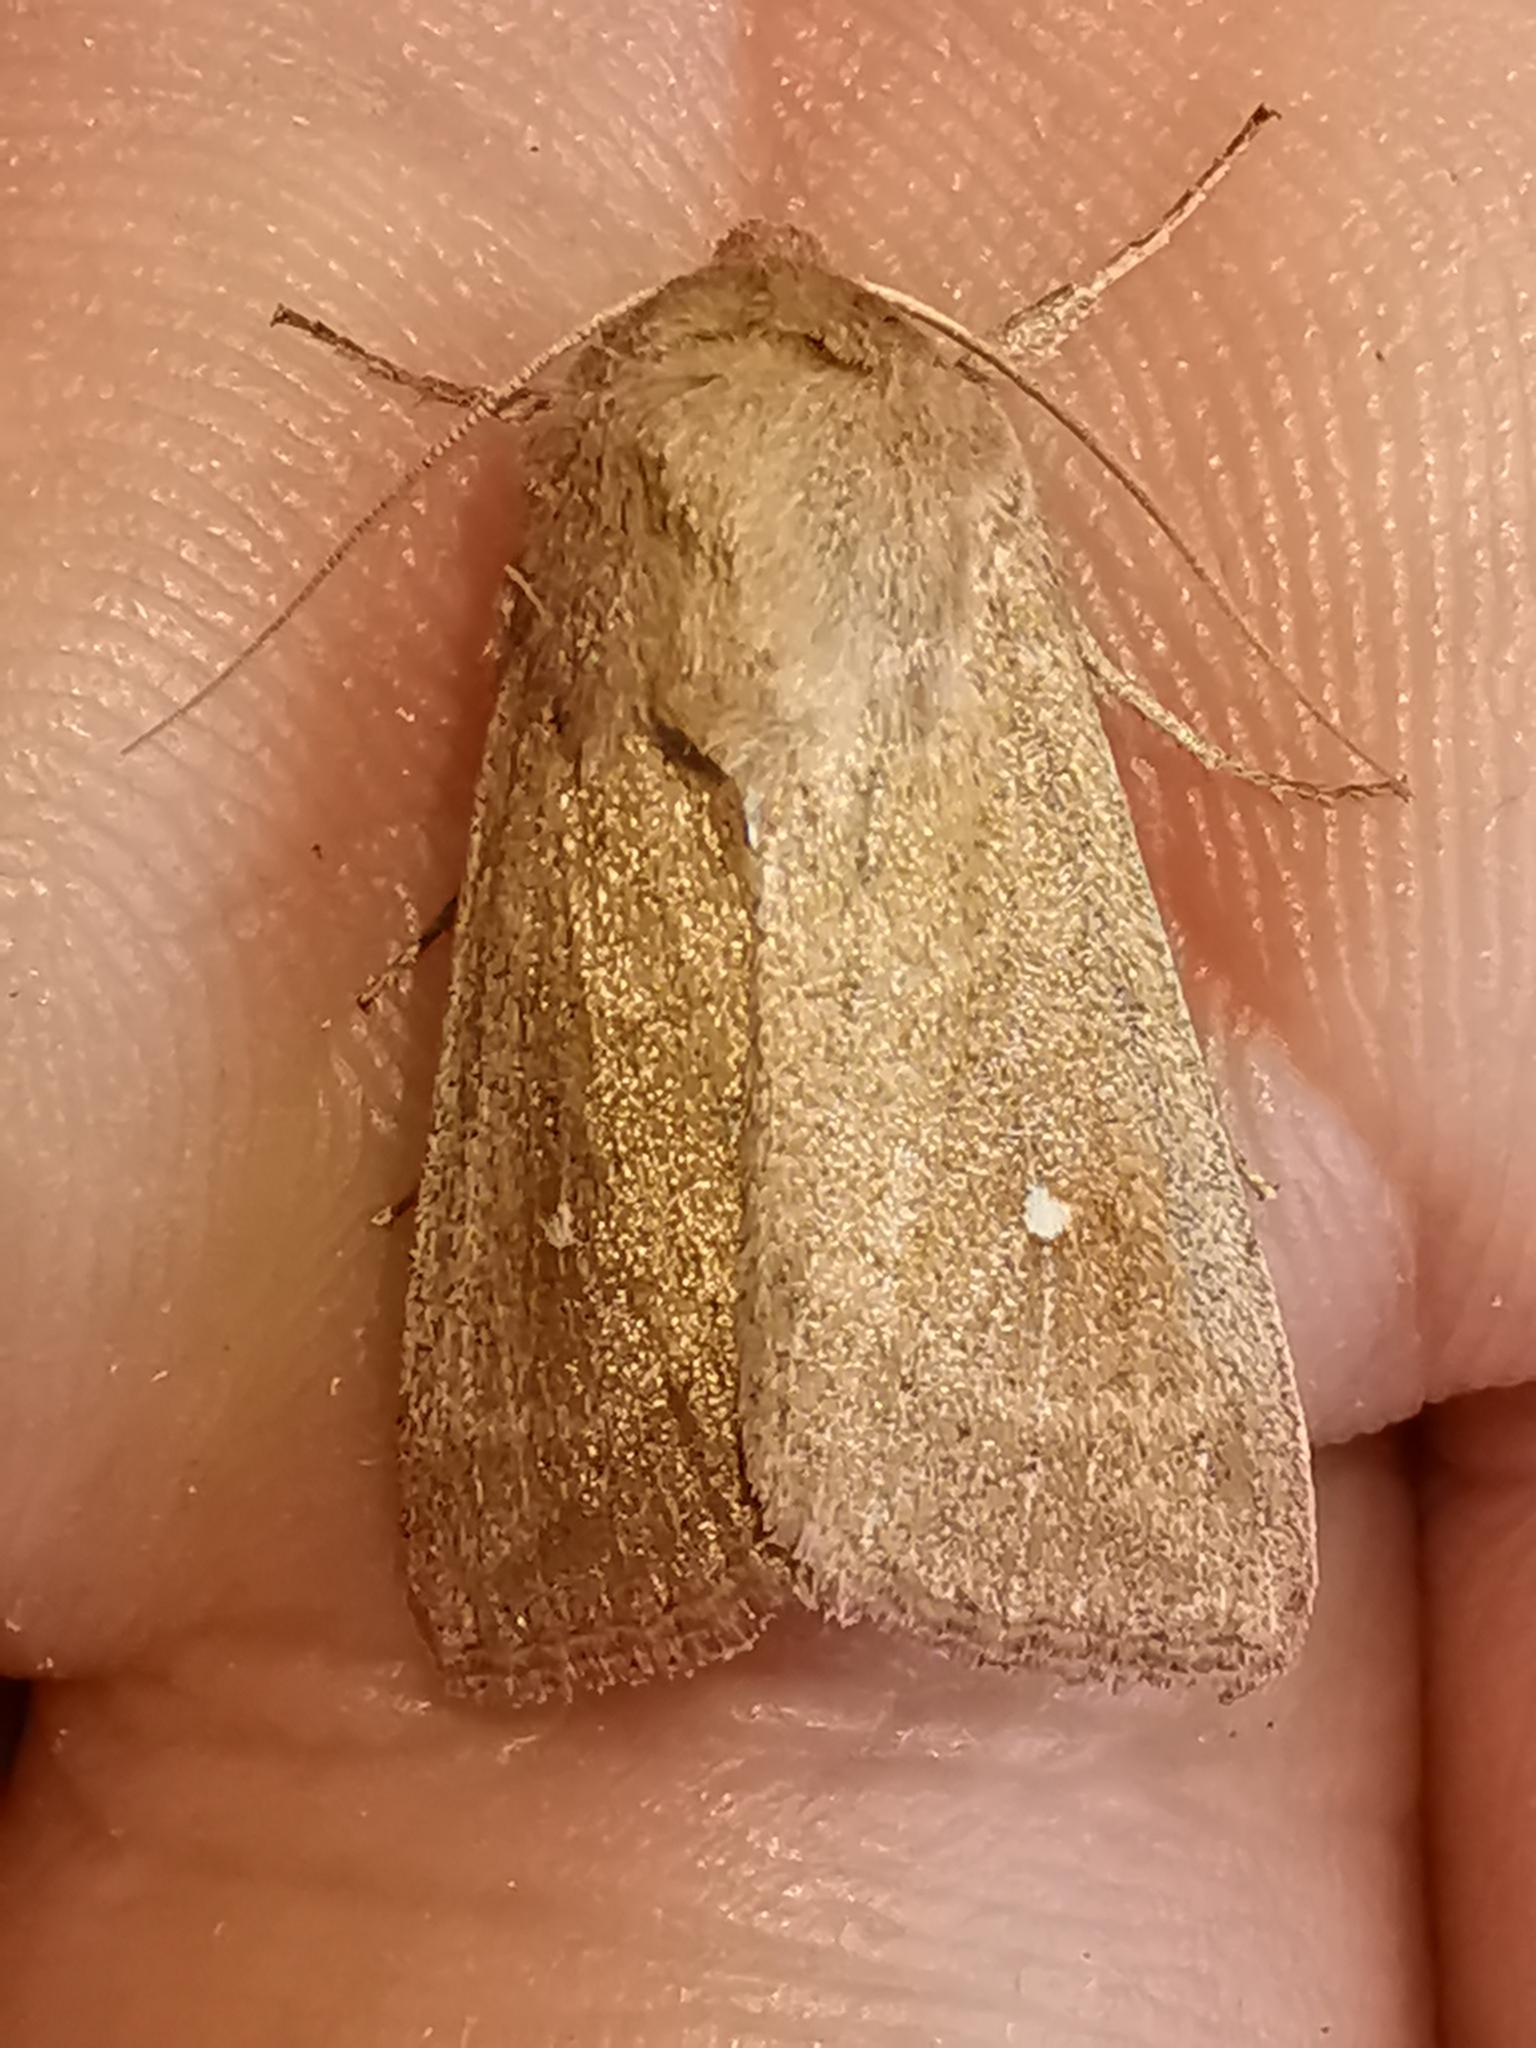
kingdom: Animalia
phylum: Arthropoda
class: Insecta
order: Lepidoptera
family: Noctuidae
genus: Mythimna
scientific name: Mythimna albipuncta
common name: White-point
